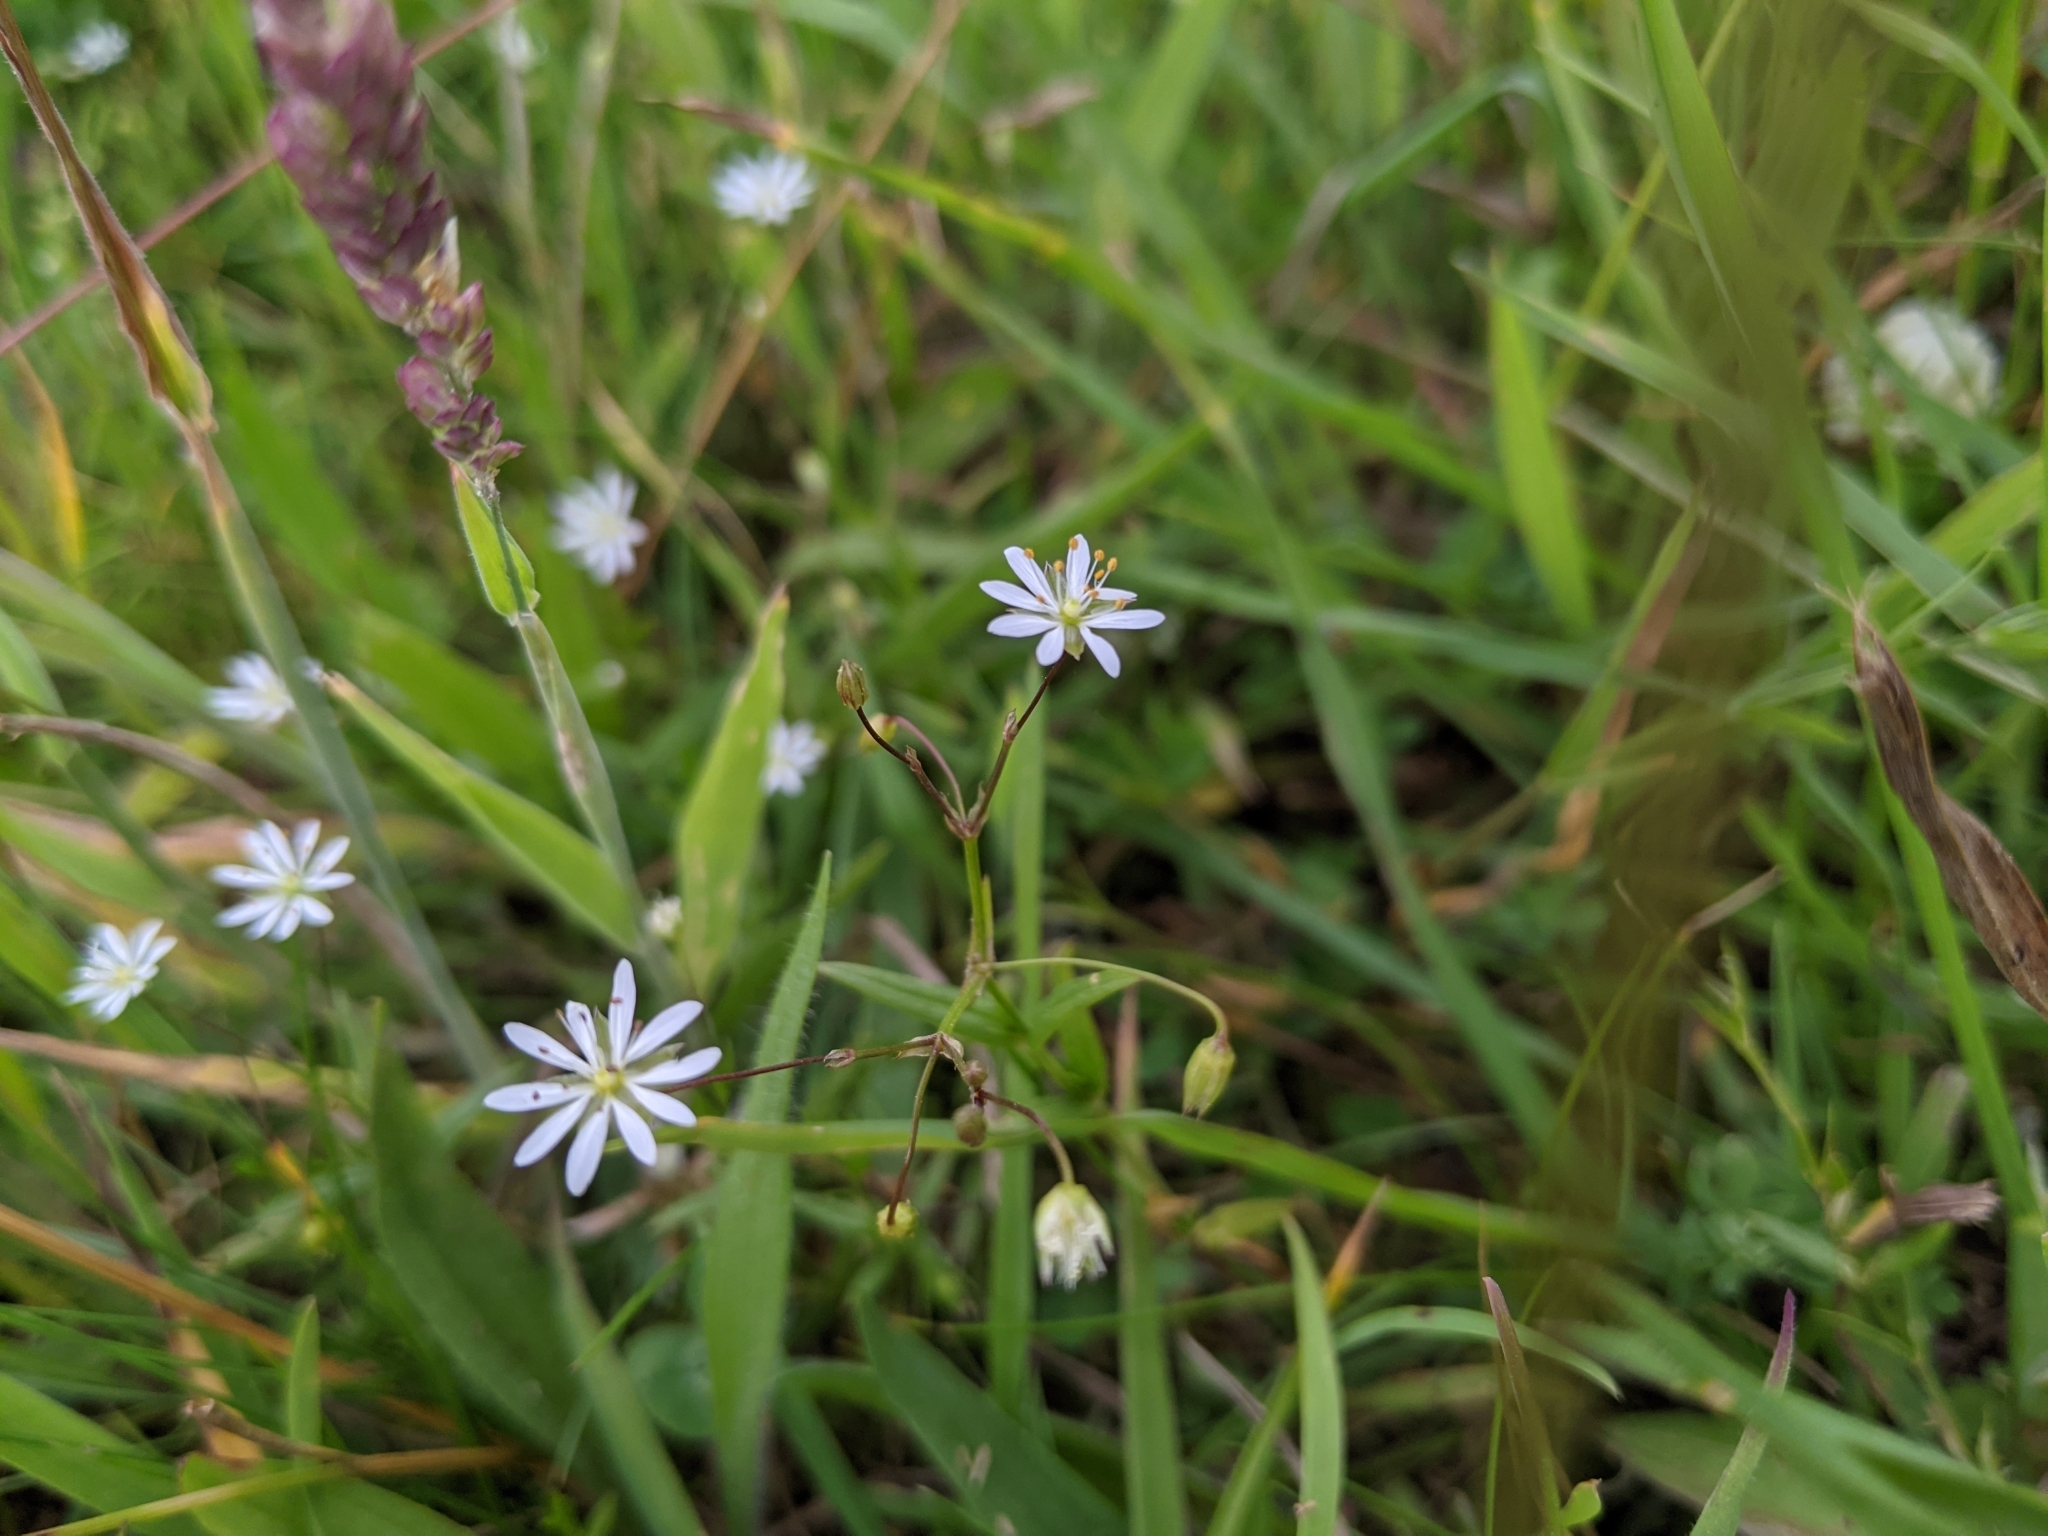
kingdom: Plantae
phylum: Tracheophyta
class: Magnoliopsida
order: Caryophyllales
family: Caryophyllaceae
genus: Stellaria
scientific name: Stellaria graminea
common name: Grass-like starwort
